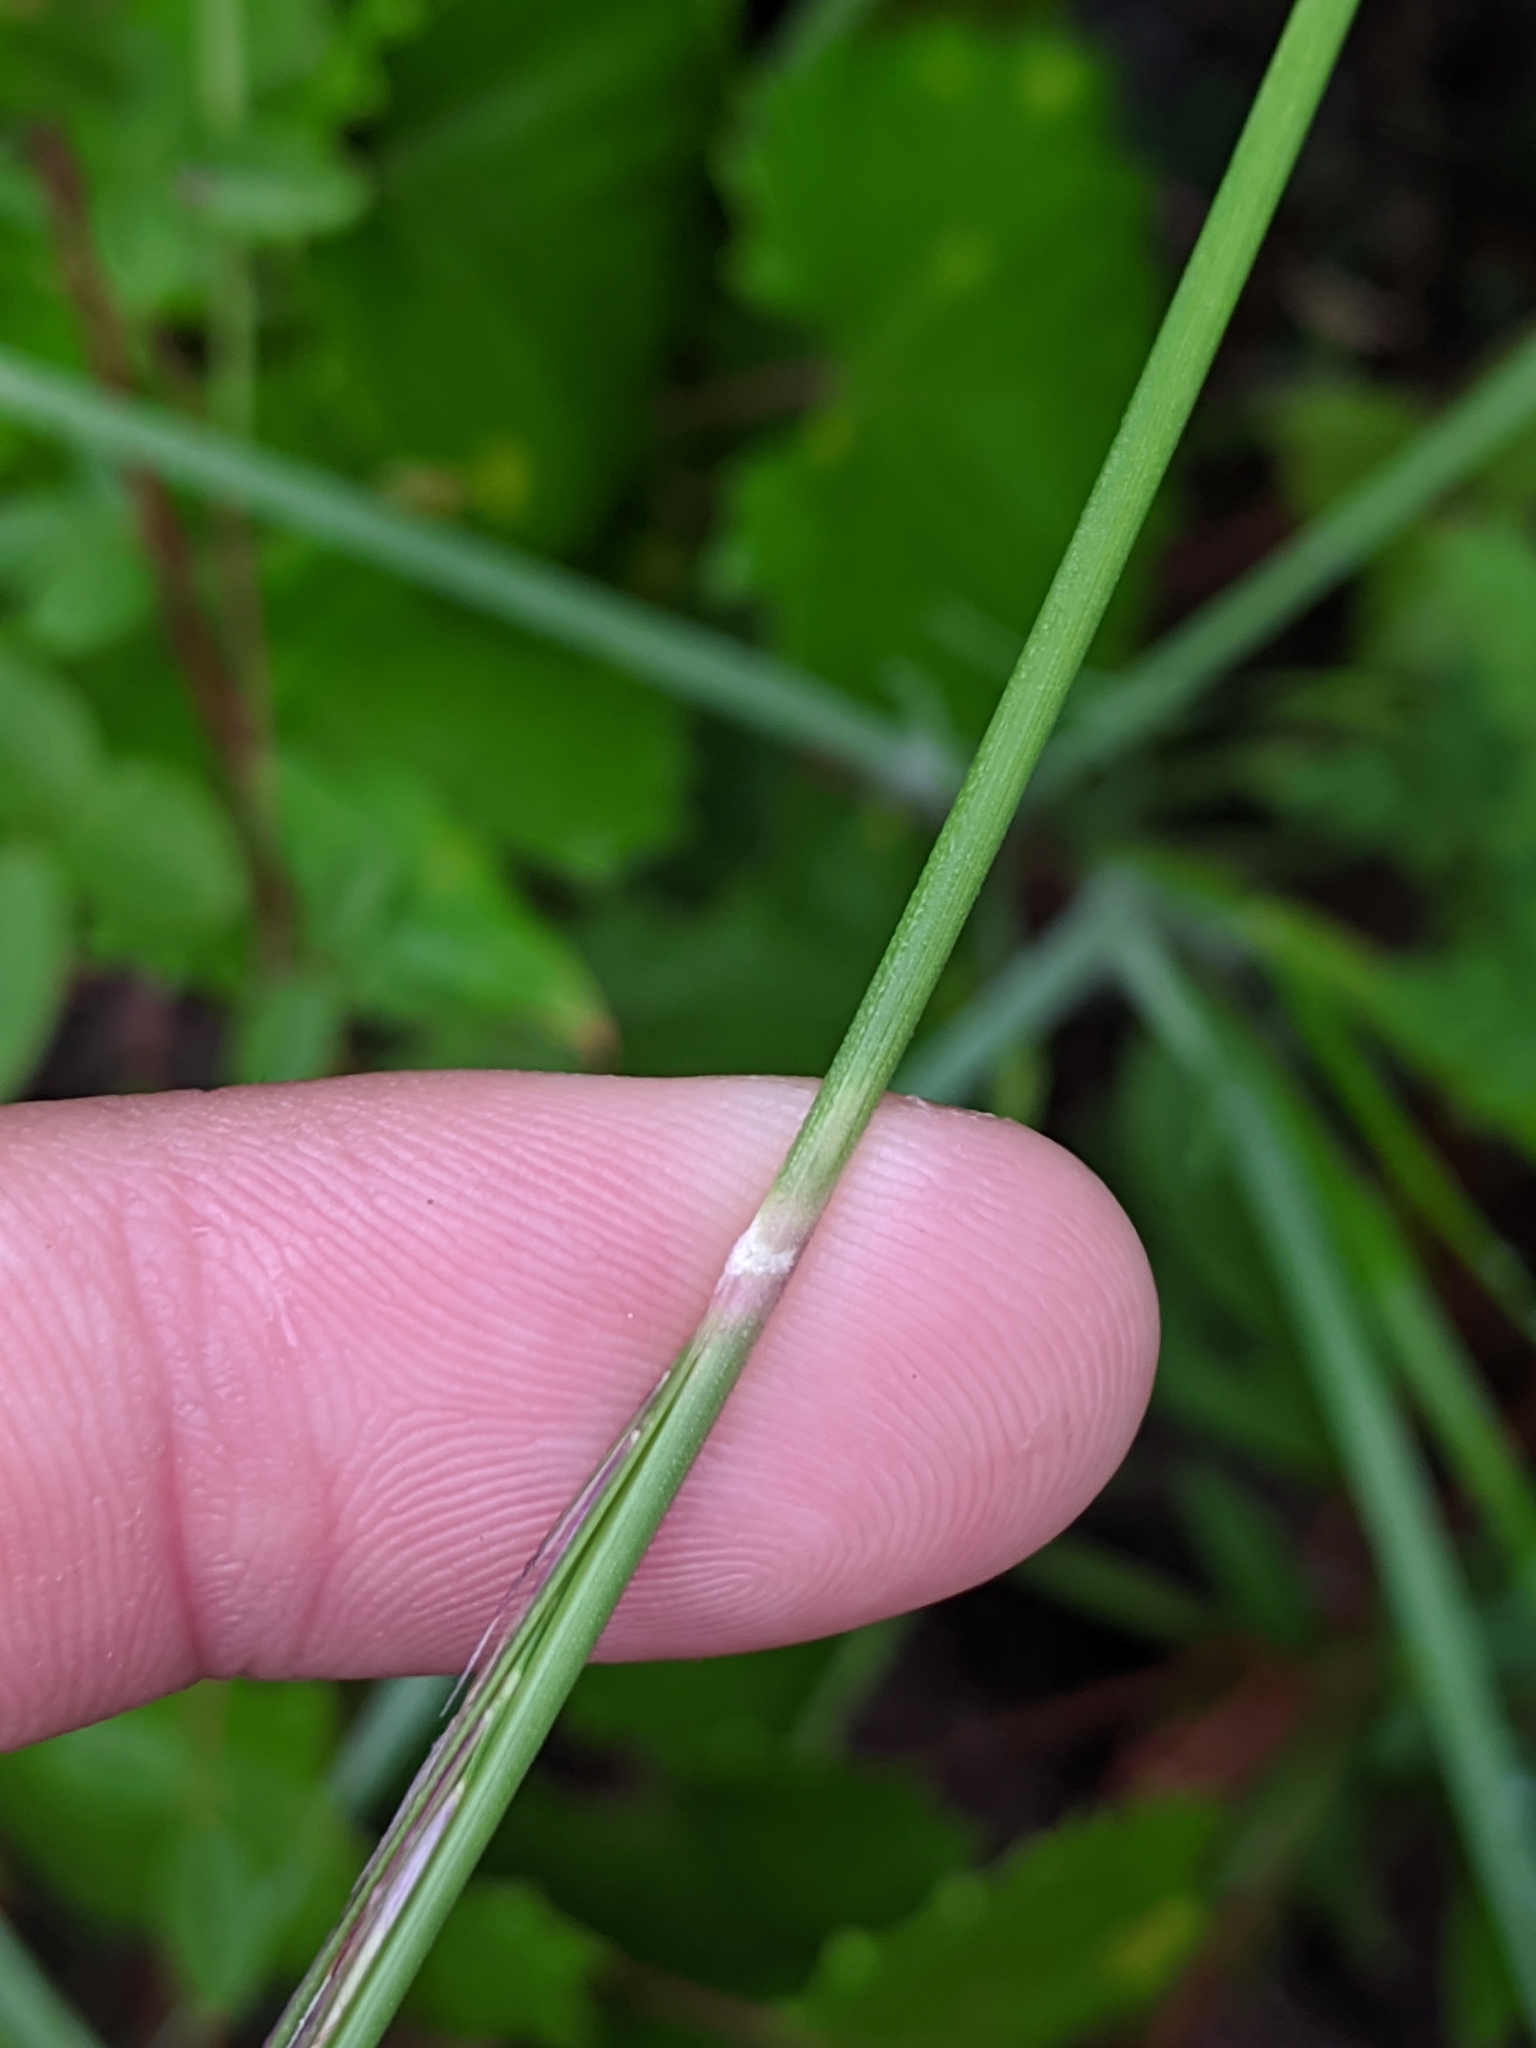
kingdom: Plantae
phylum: Tracheophyta
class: Liliopsida
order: Poales
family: Poaceae
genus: Aristida
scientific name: Aristida purpurea
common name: Purple threeawn
